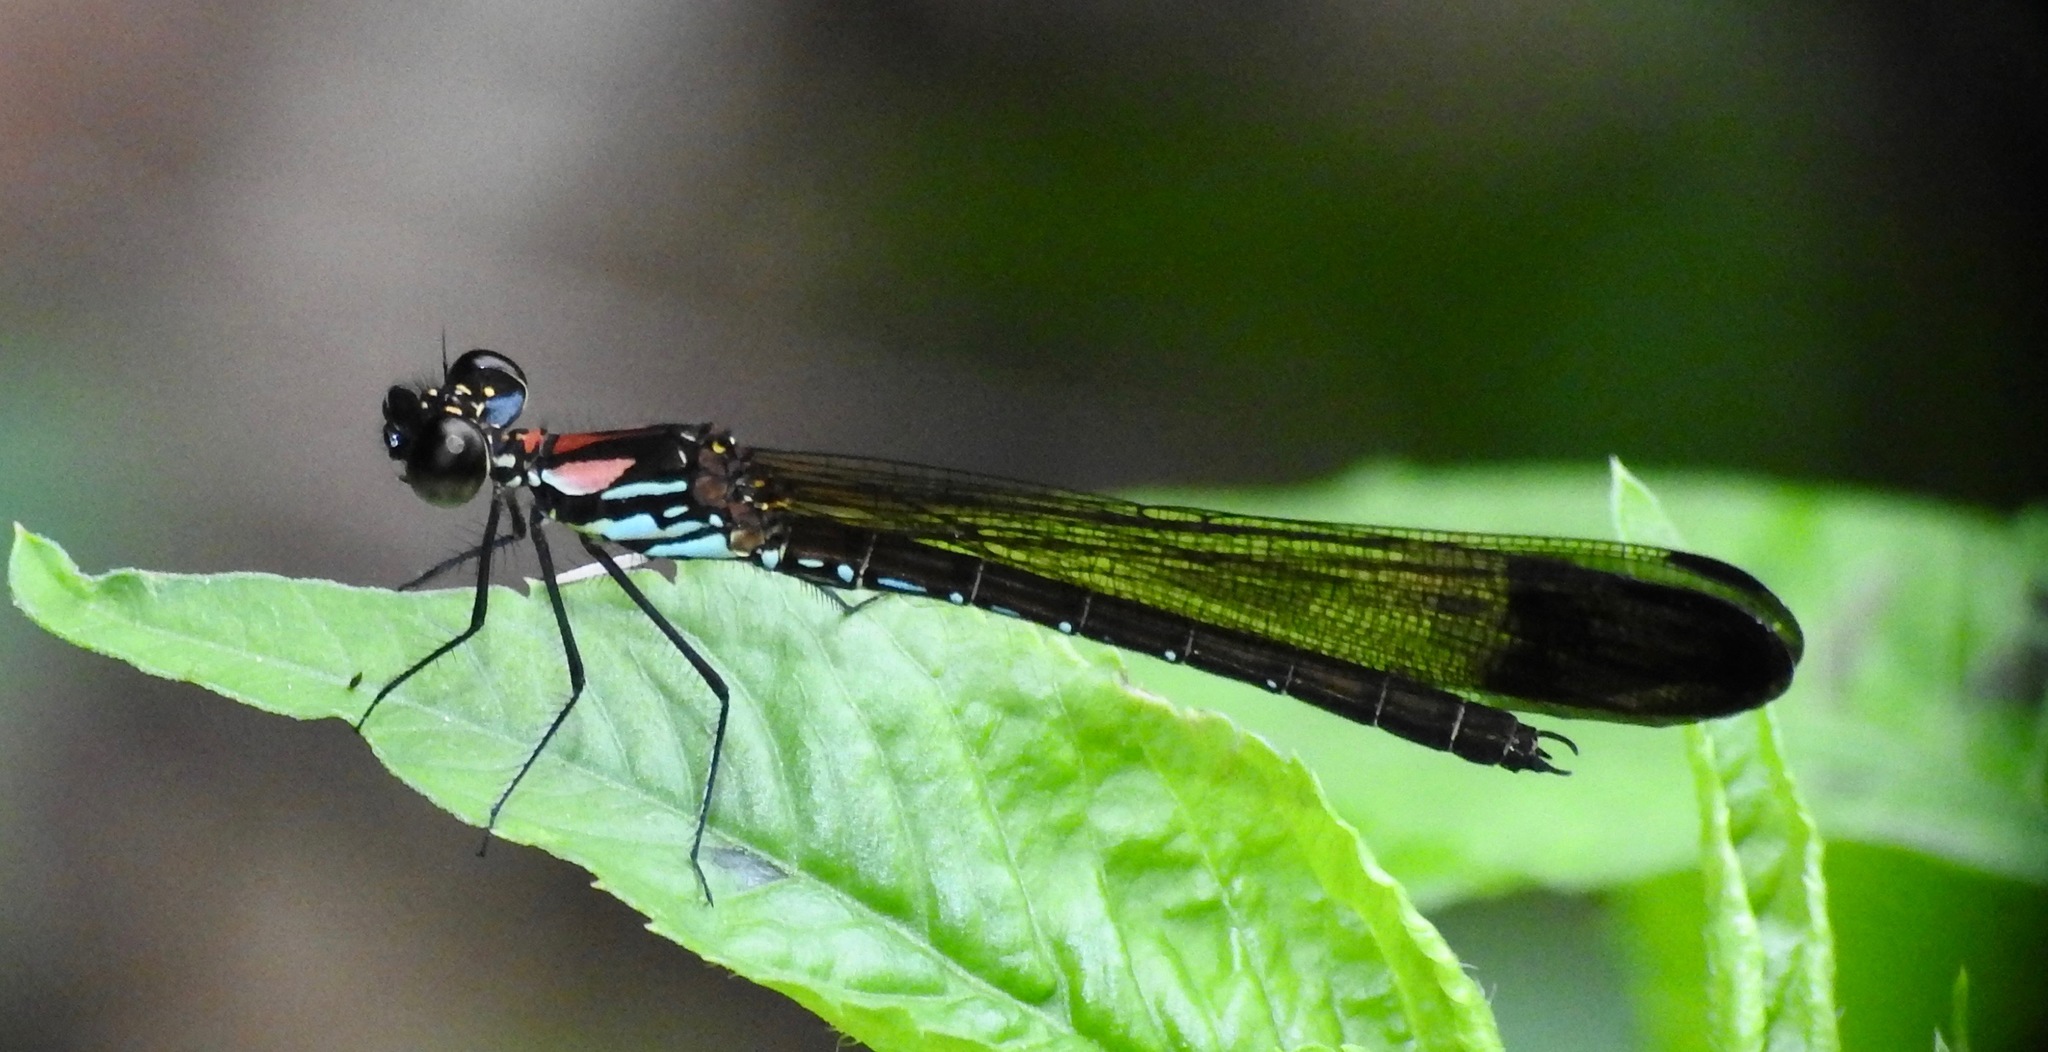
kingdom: Animalia
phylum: Arthropoda
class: Insecta
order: Odonata
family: Chlorocyphidae
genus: Heliocypha
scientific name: Heliocypha biforata
